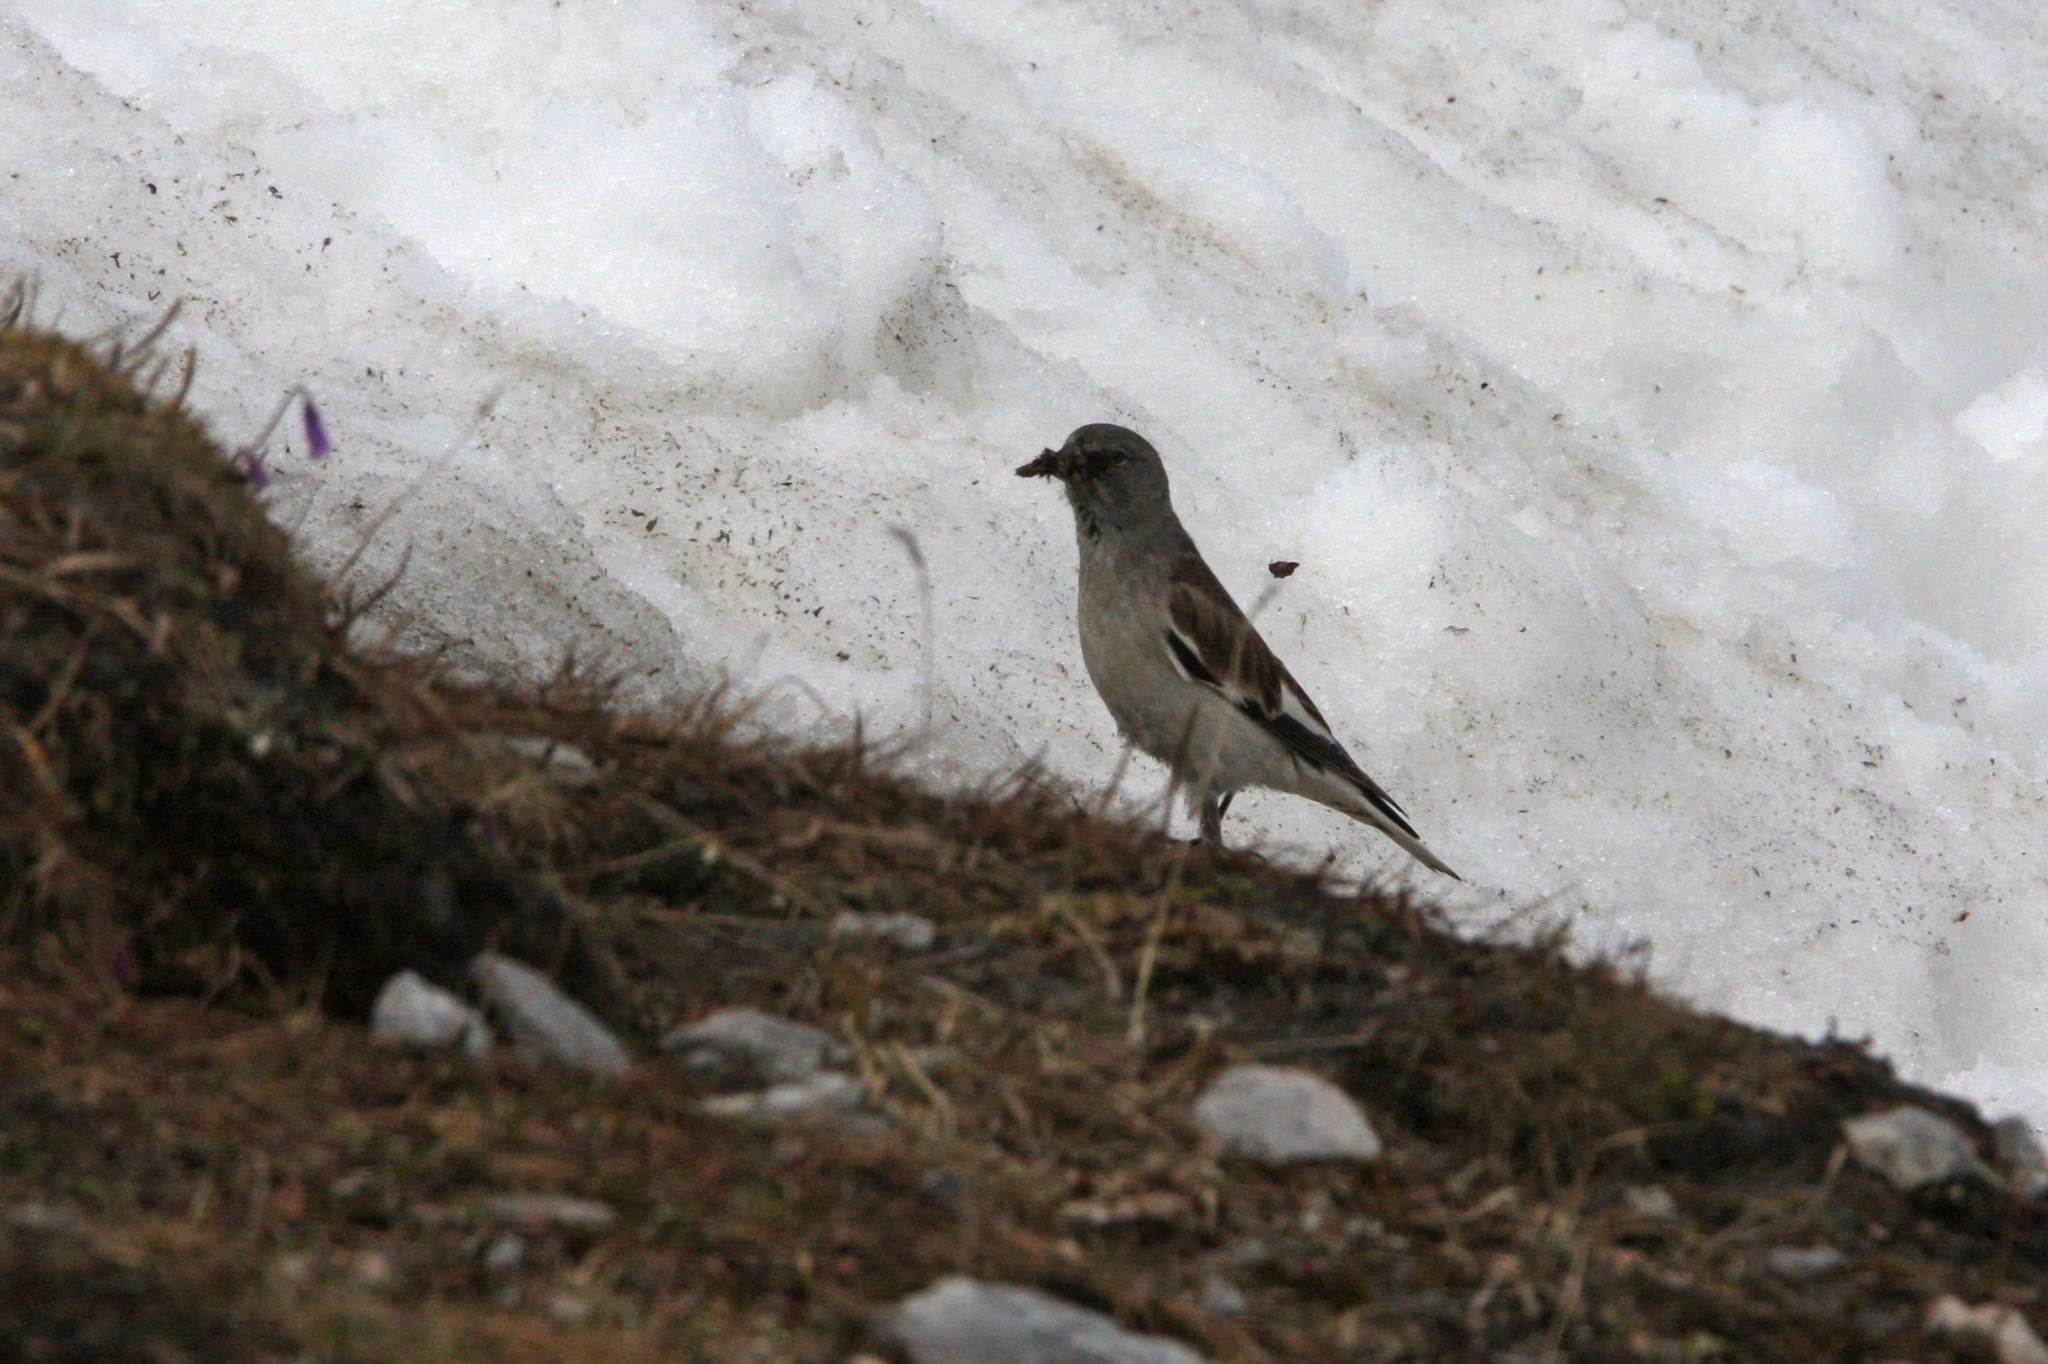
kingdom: Animalia
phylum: Chordata
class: Aves
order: Passeriformes
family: Passeridae
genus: Montifringilla
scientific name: Montifringilla nivalis
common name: White-winged snowfinch
